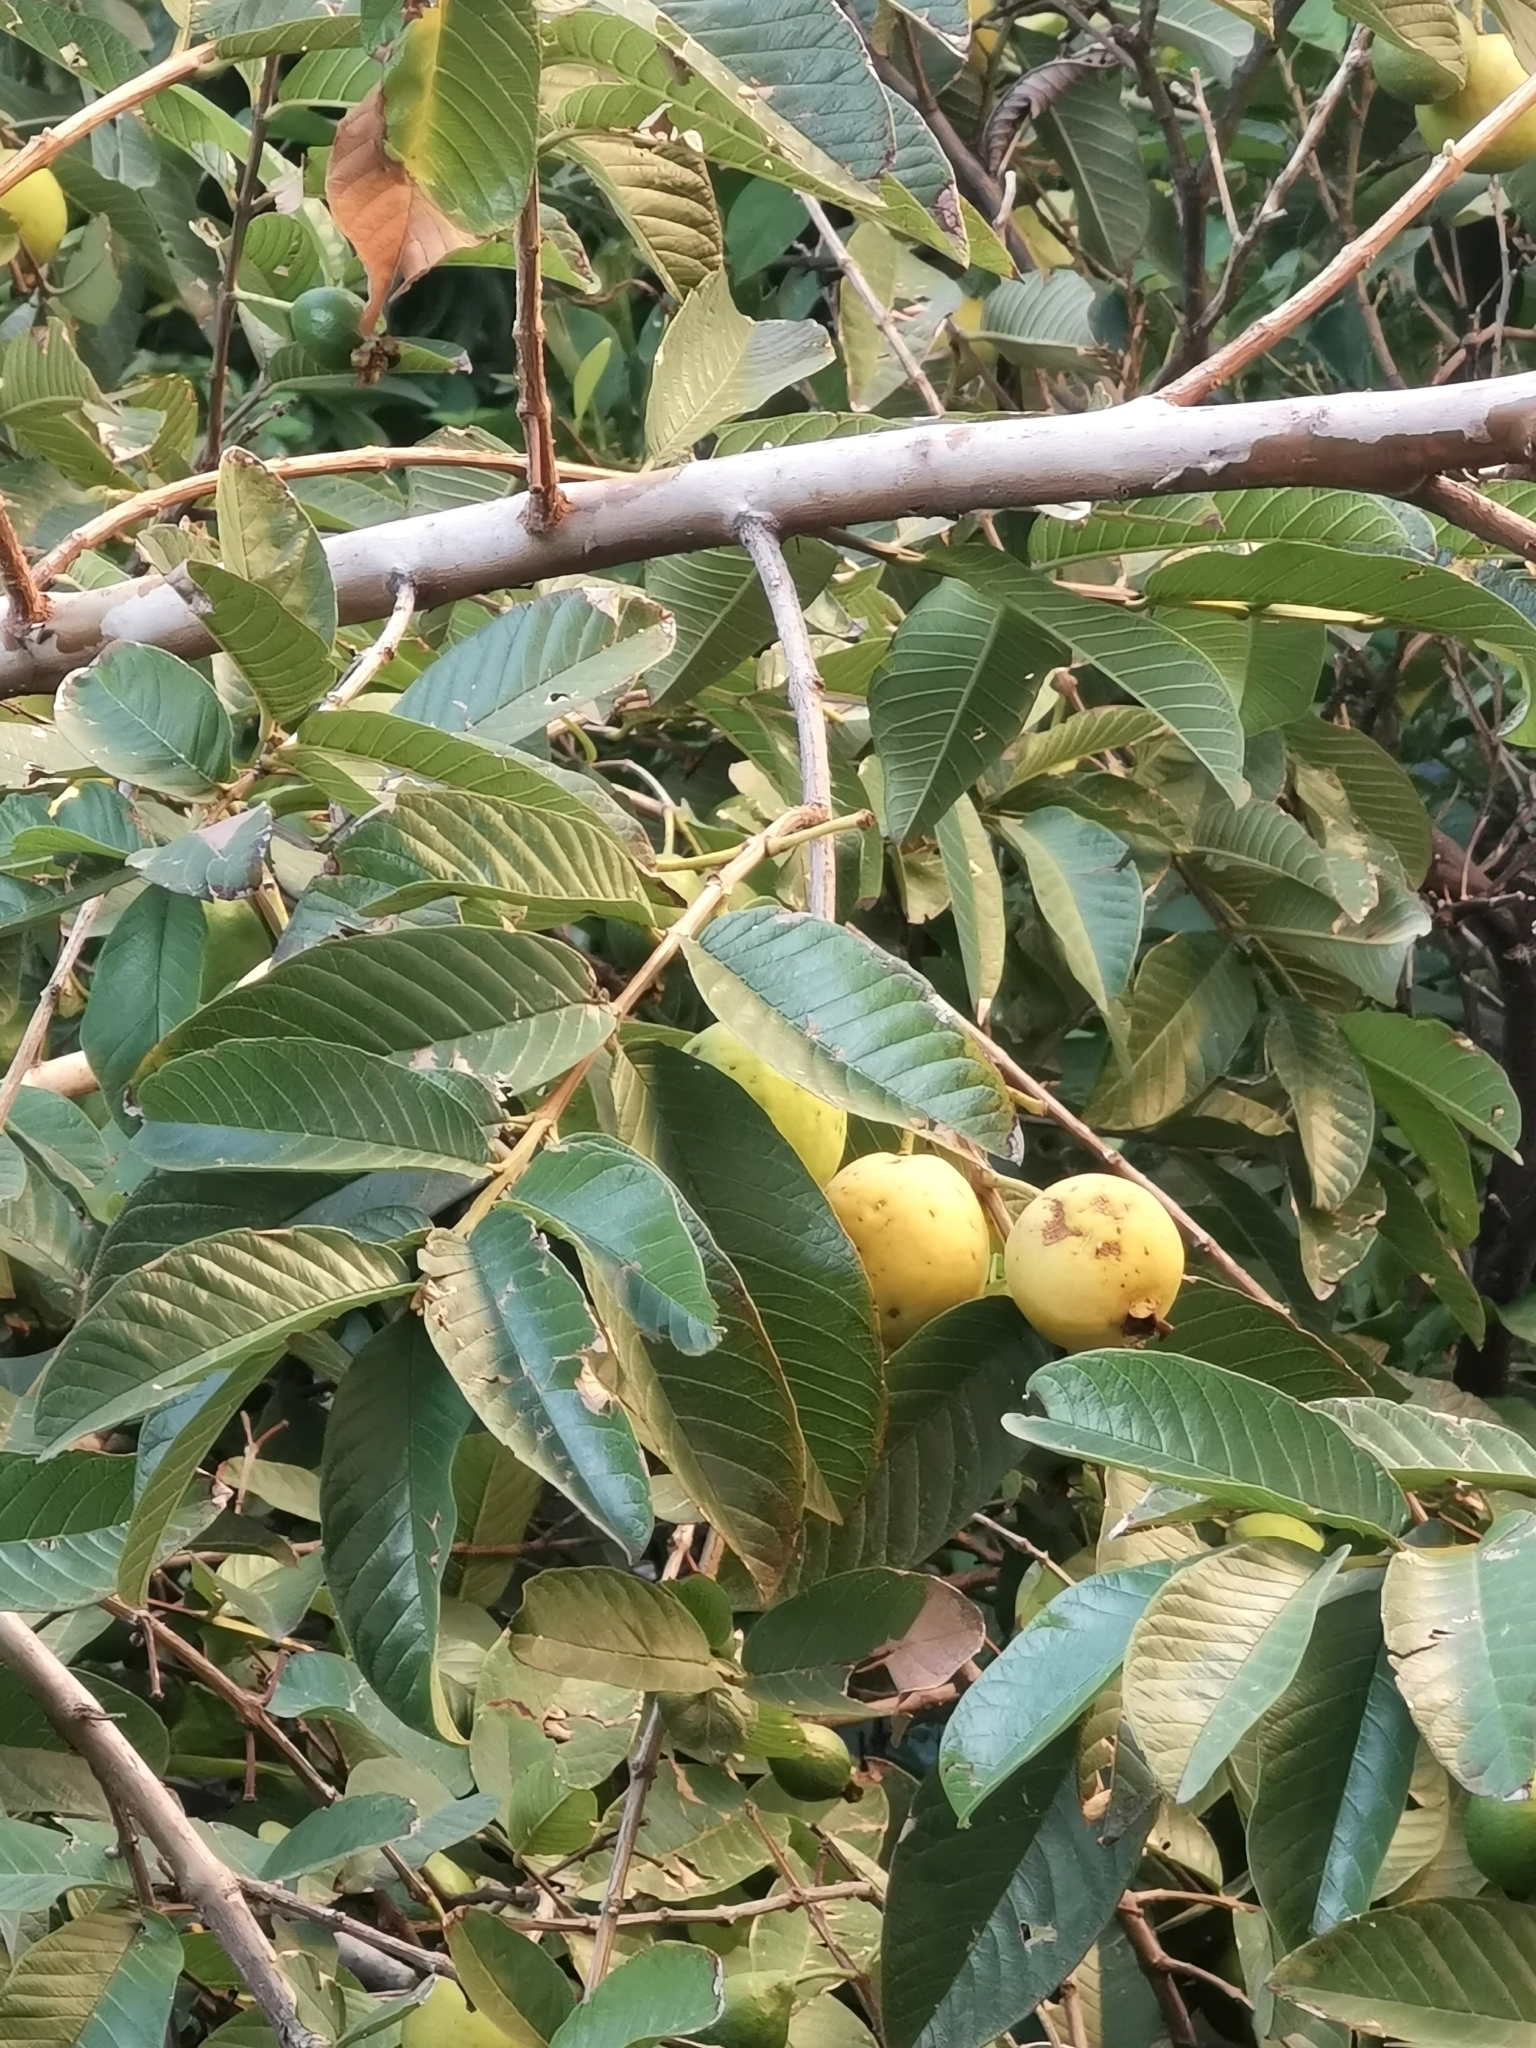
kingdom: Plantae
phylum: Tracheophyta
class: Magnoliopsida
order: Myrtales
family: Myrtaceae
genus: Psidium
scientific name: Psidium guajava
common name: Guava
